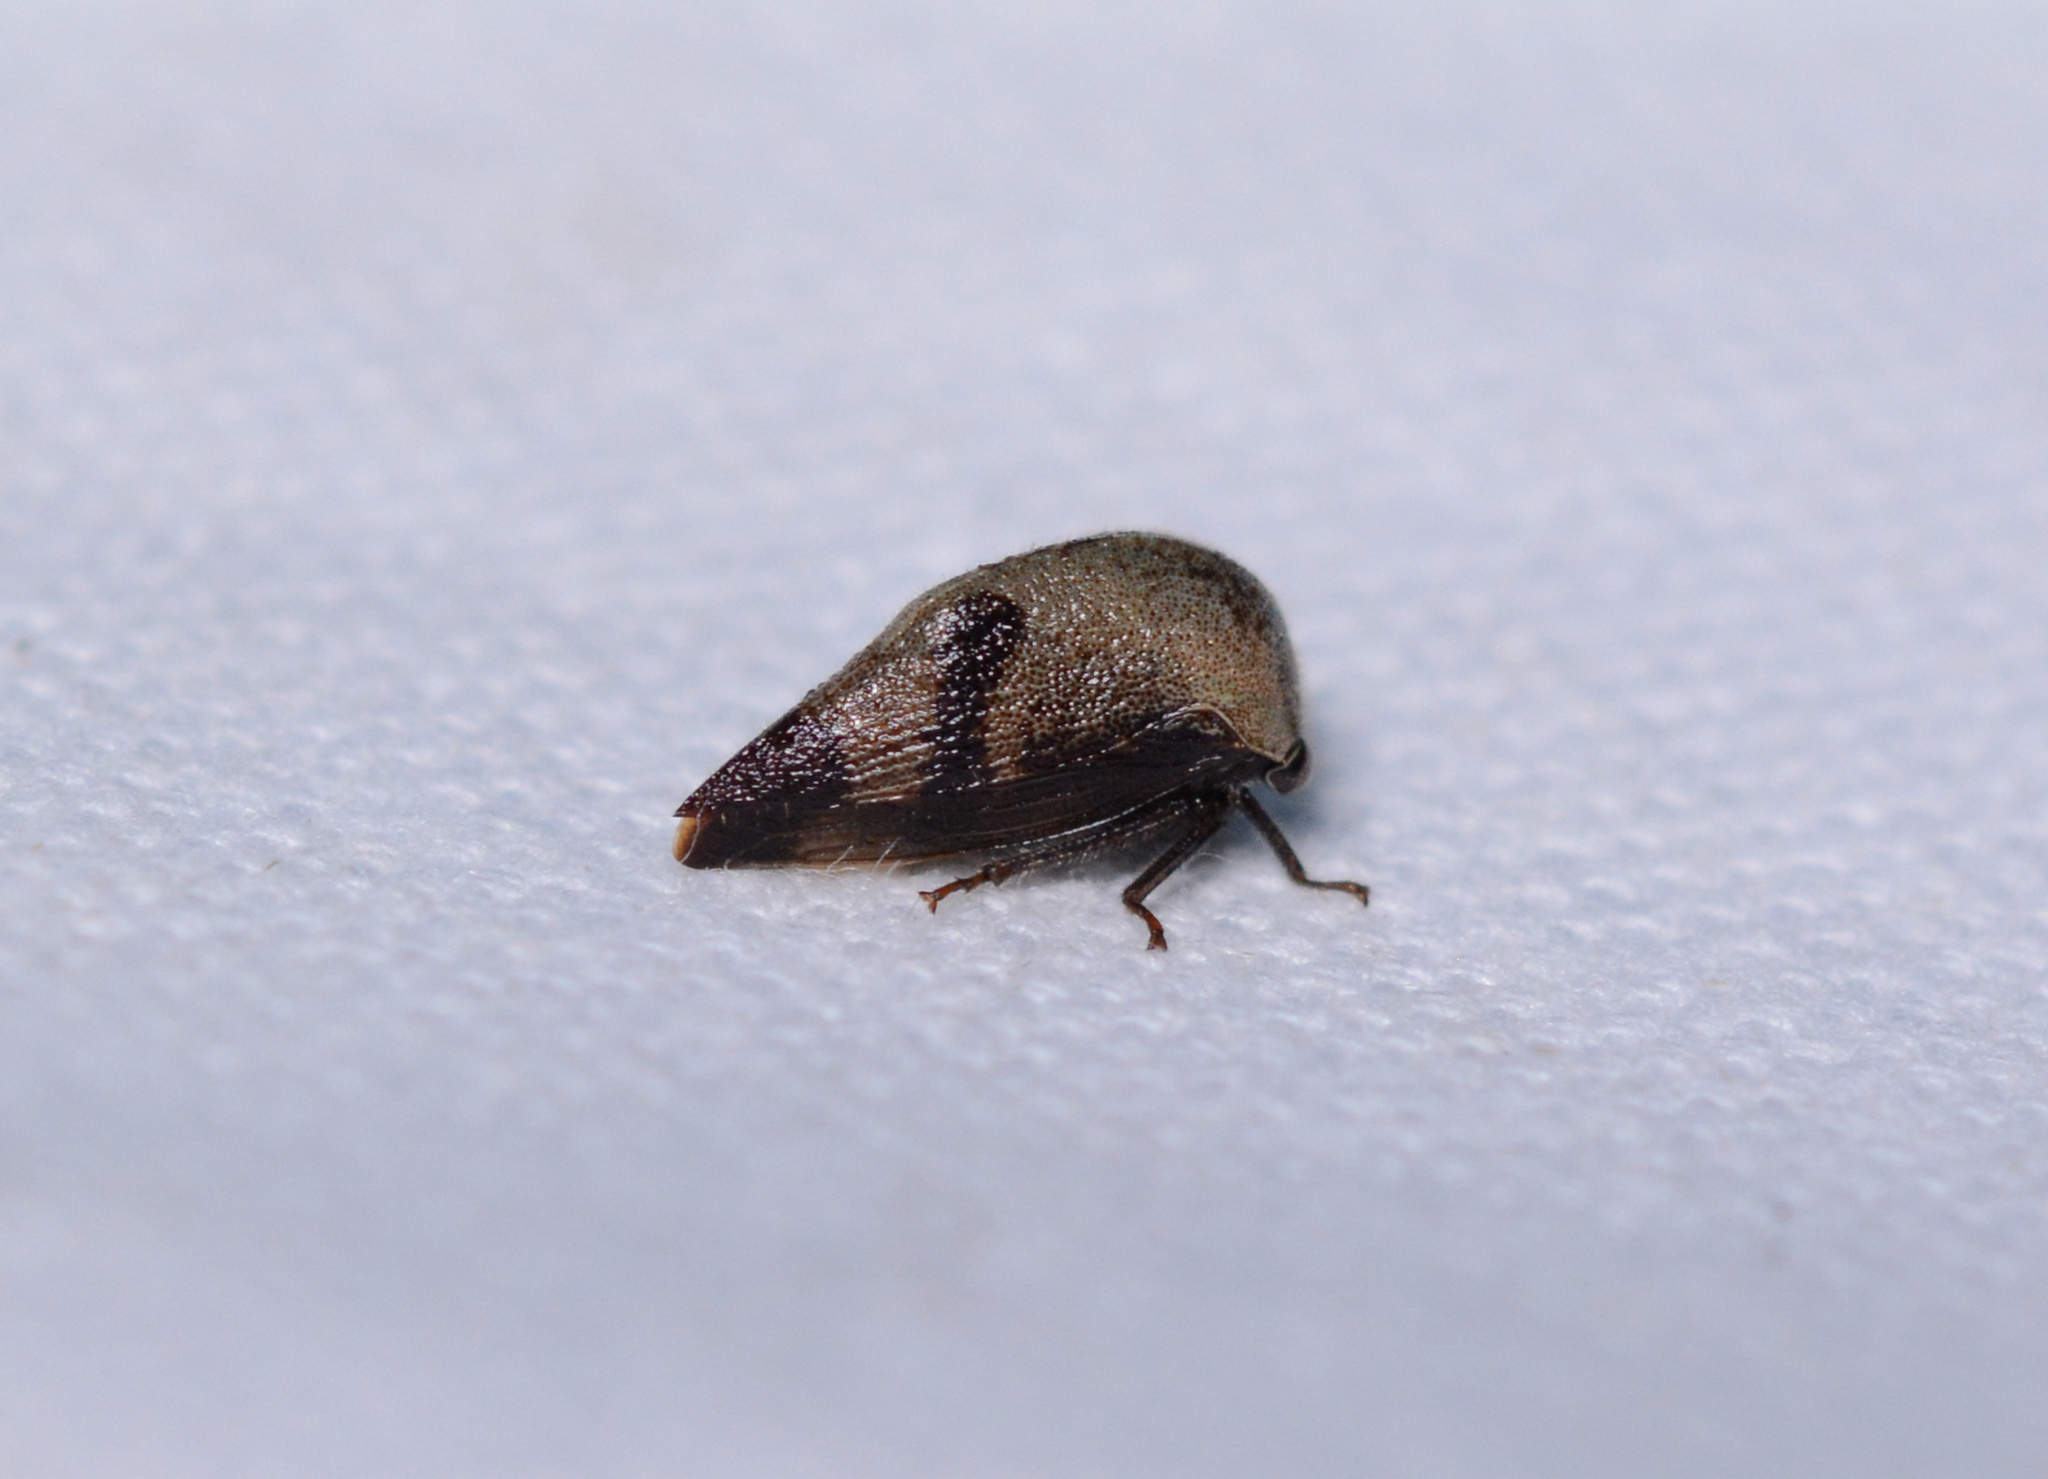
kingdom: Animalia
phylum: Arthropoda
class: Insecta
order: Hemiptera
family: Membracidae
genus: Carynota
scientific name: Carynota mera
